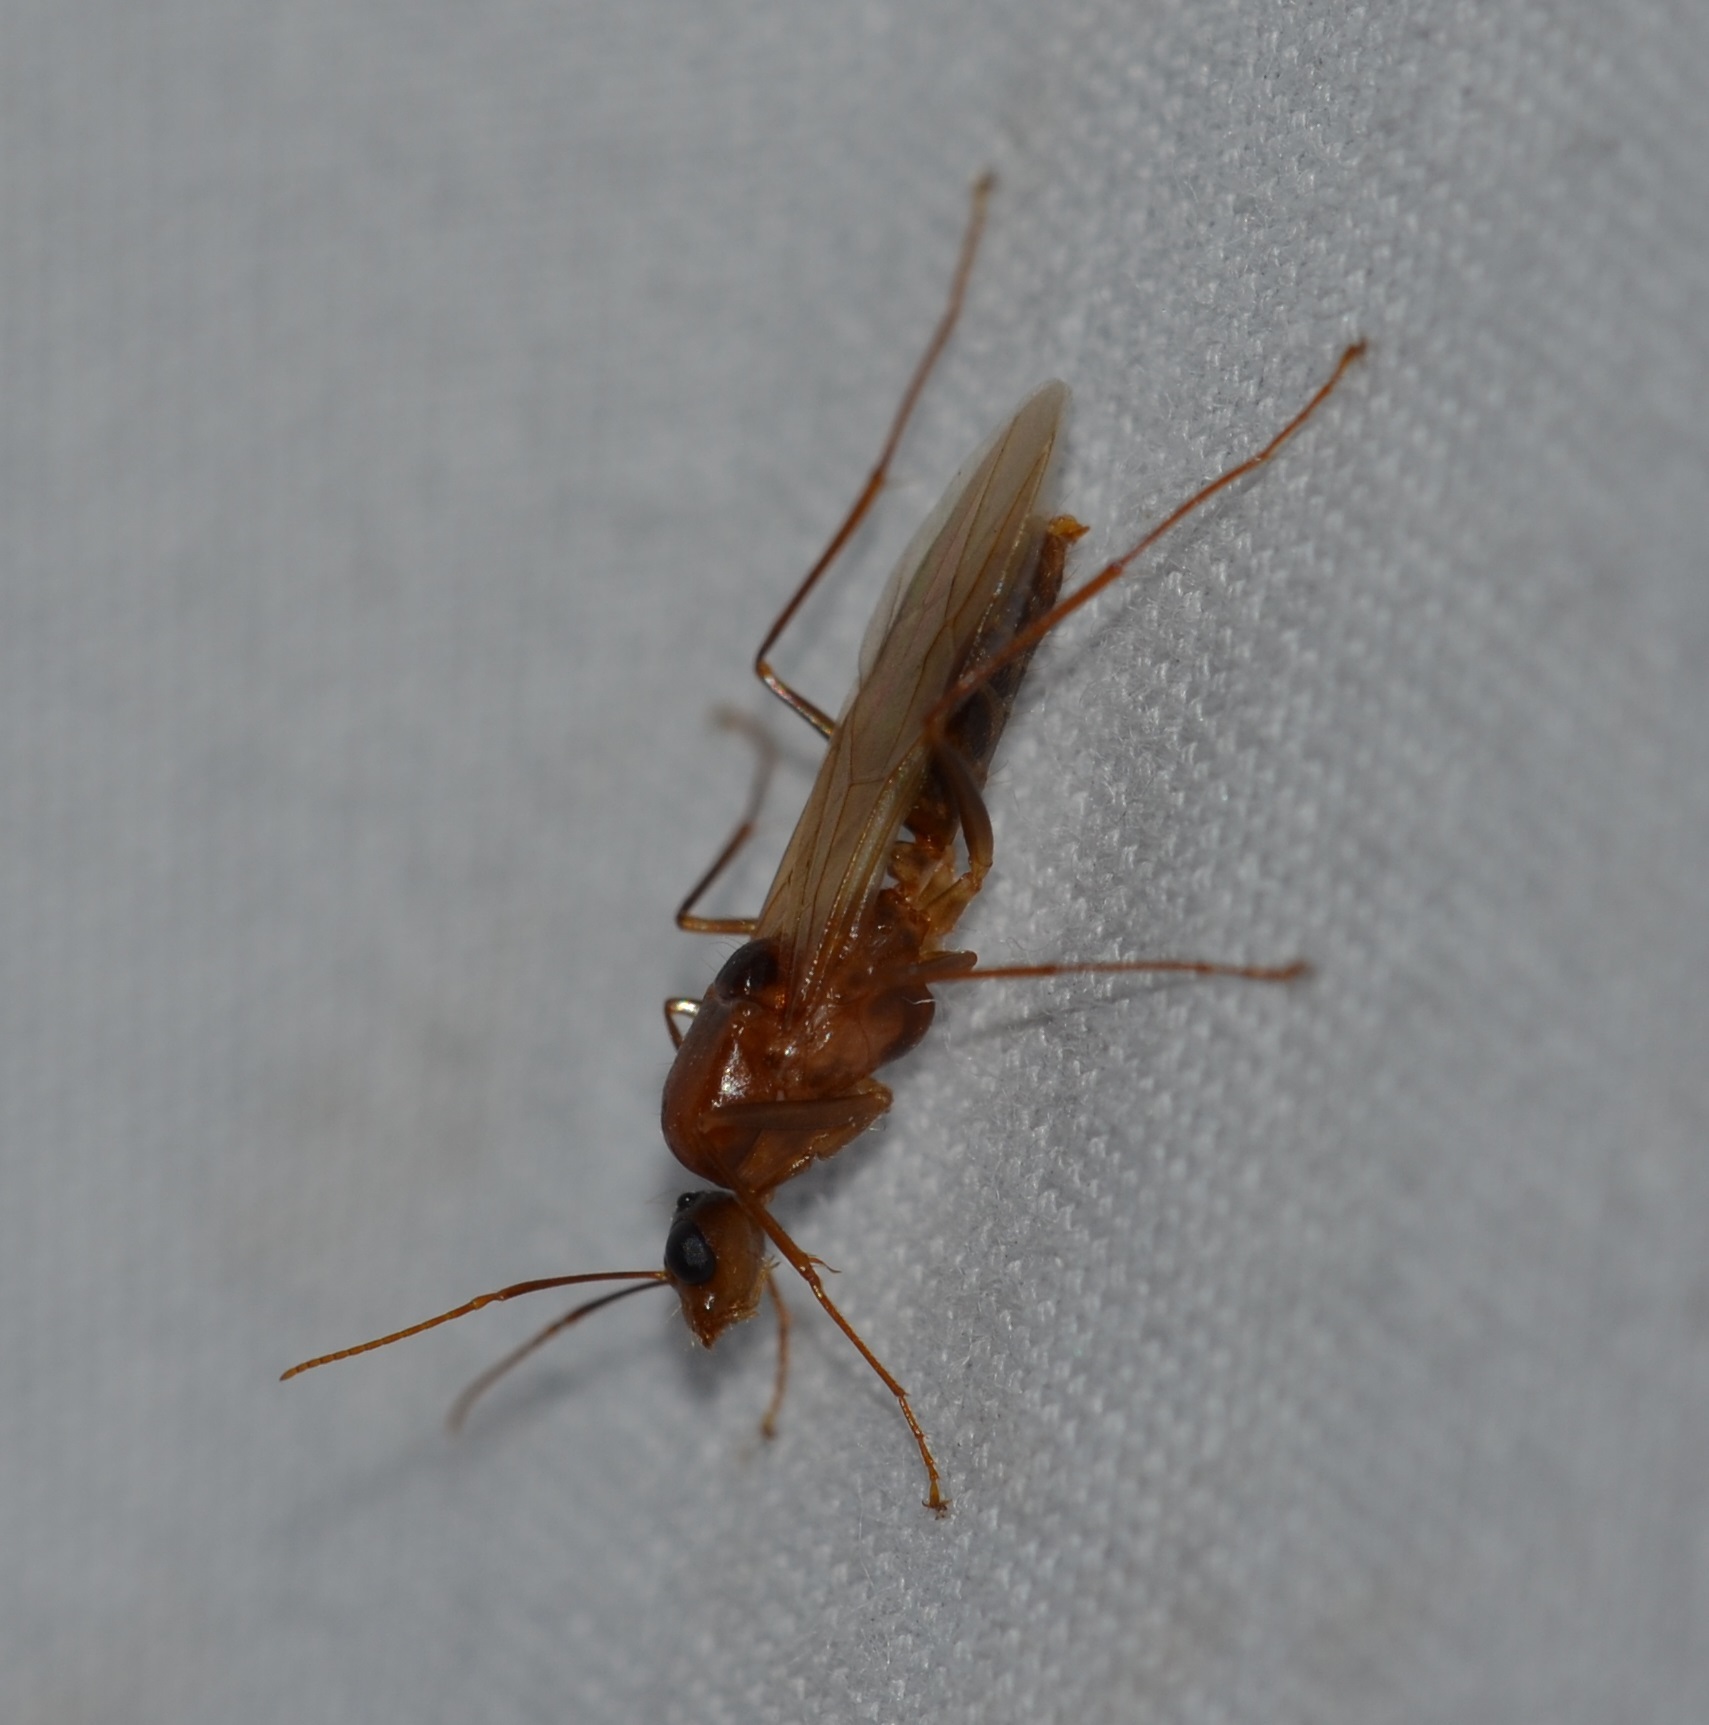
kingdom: Animalia
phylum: Arthropoda
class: Insecta
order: Hymenoptera
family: Formicidae
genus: Camponotus
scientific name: Camponotus variegatus
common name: Hawaiian carpenter ant
